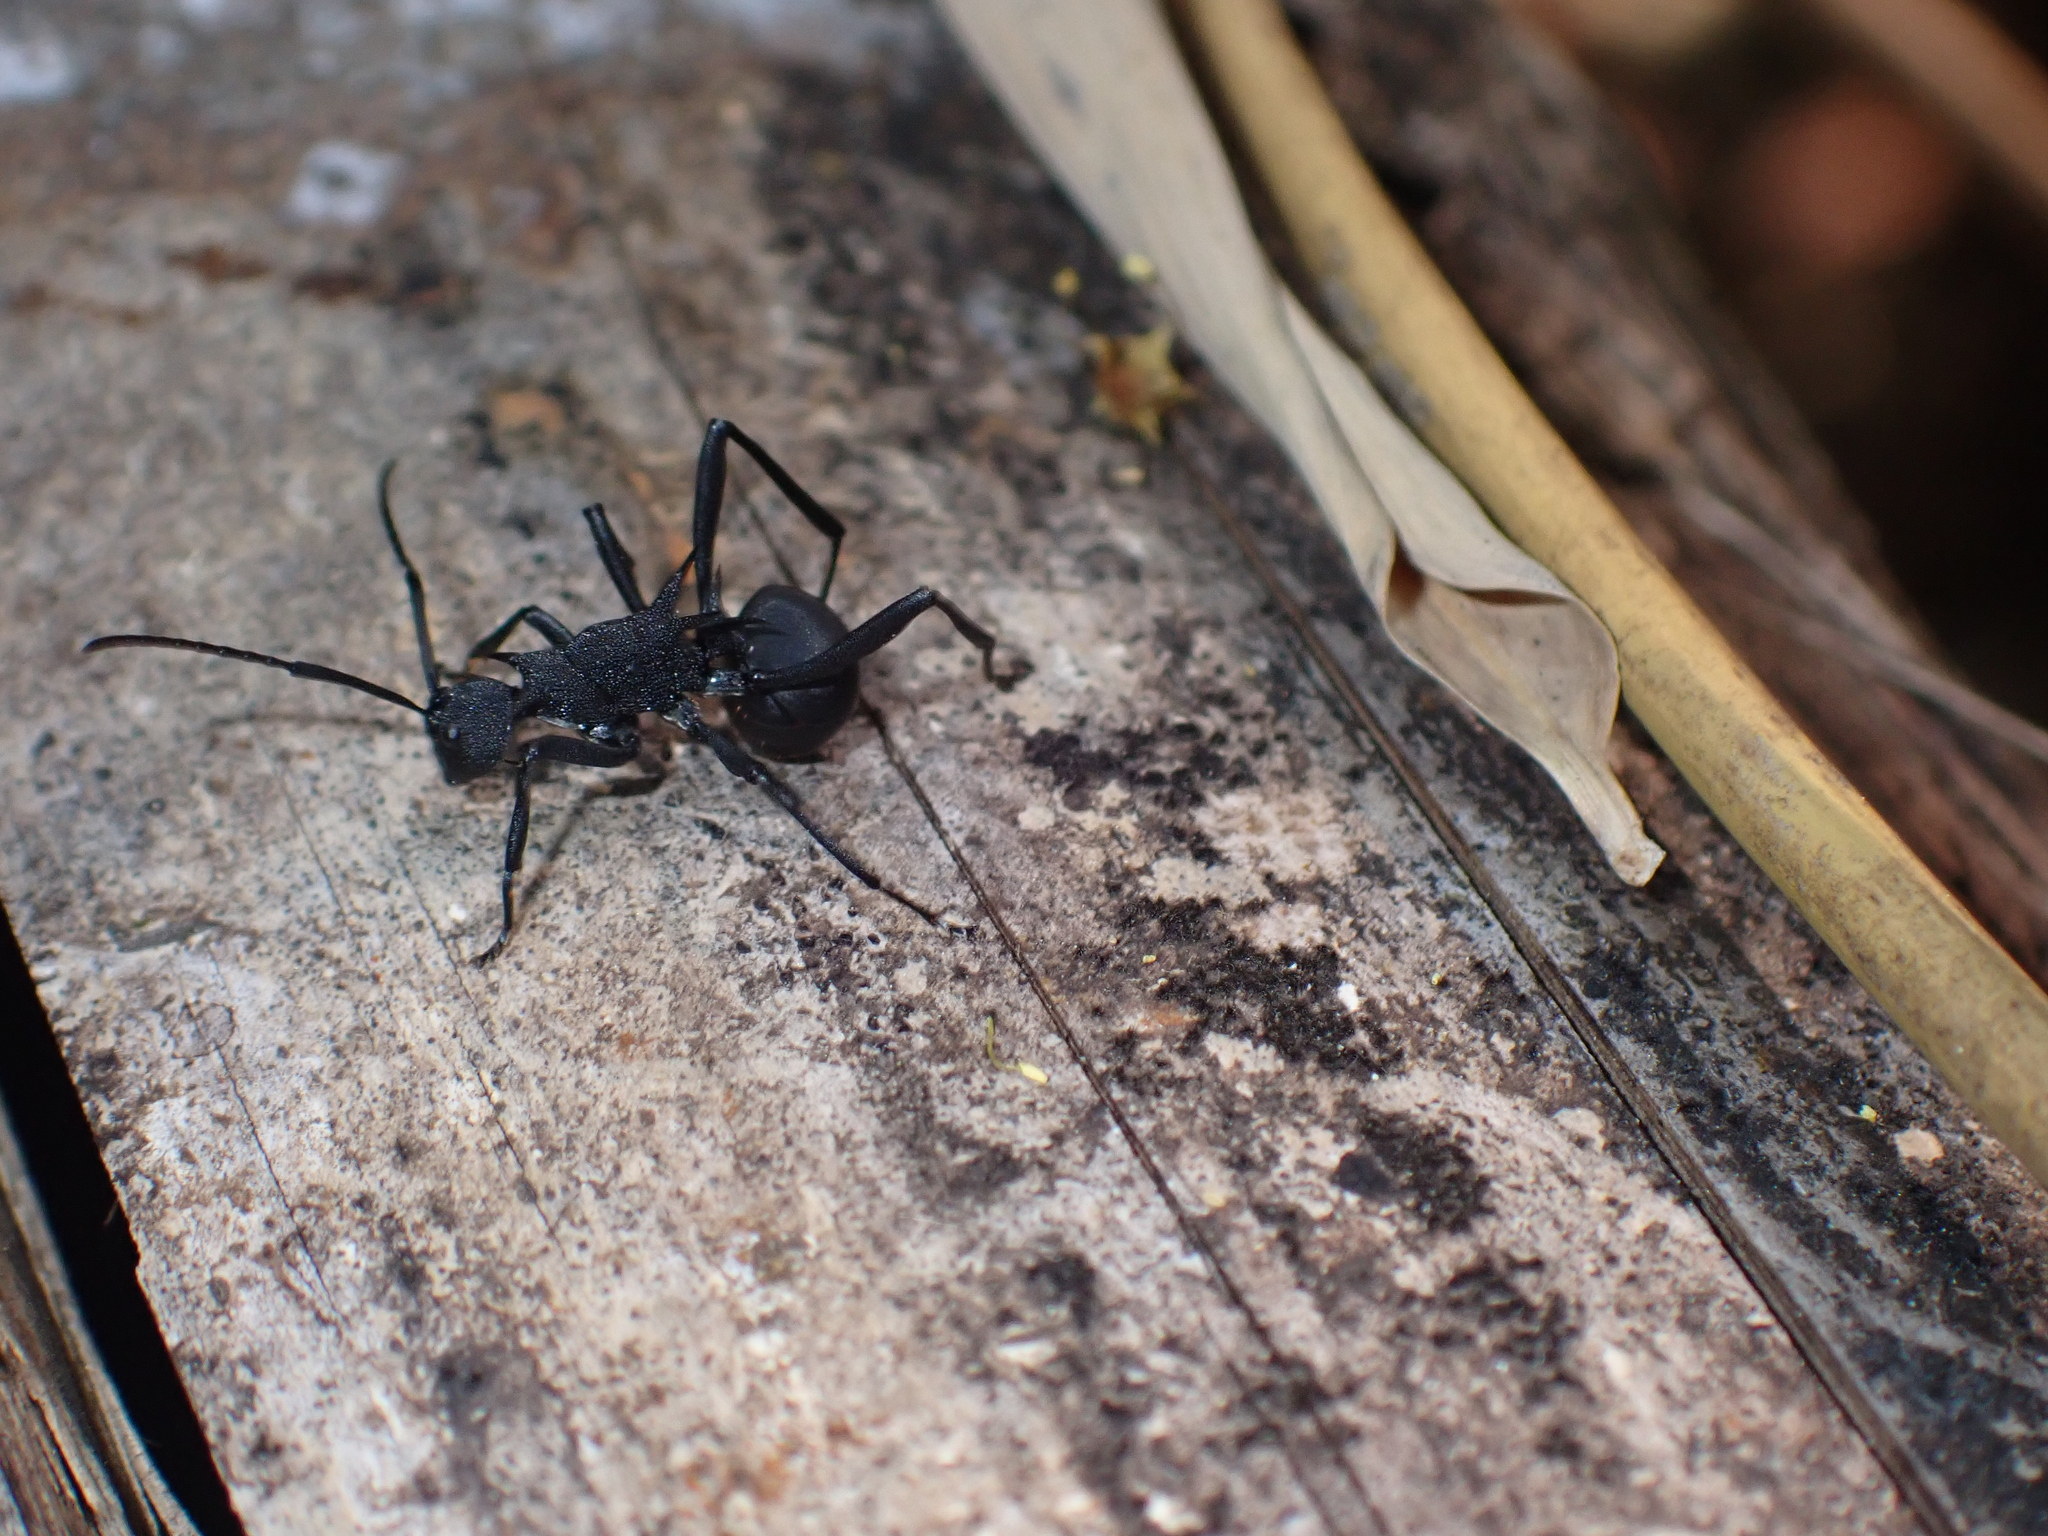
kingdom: Animalia
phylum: Arthropoda
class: Insecta
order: Hymenoptera
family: Formicidae
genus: Polyrhachis
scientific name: Polyrhachis armata
